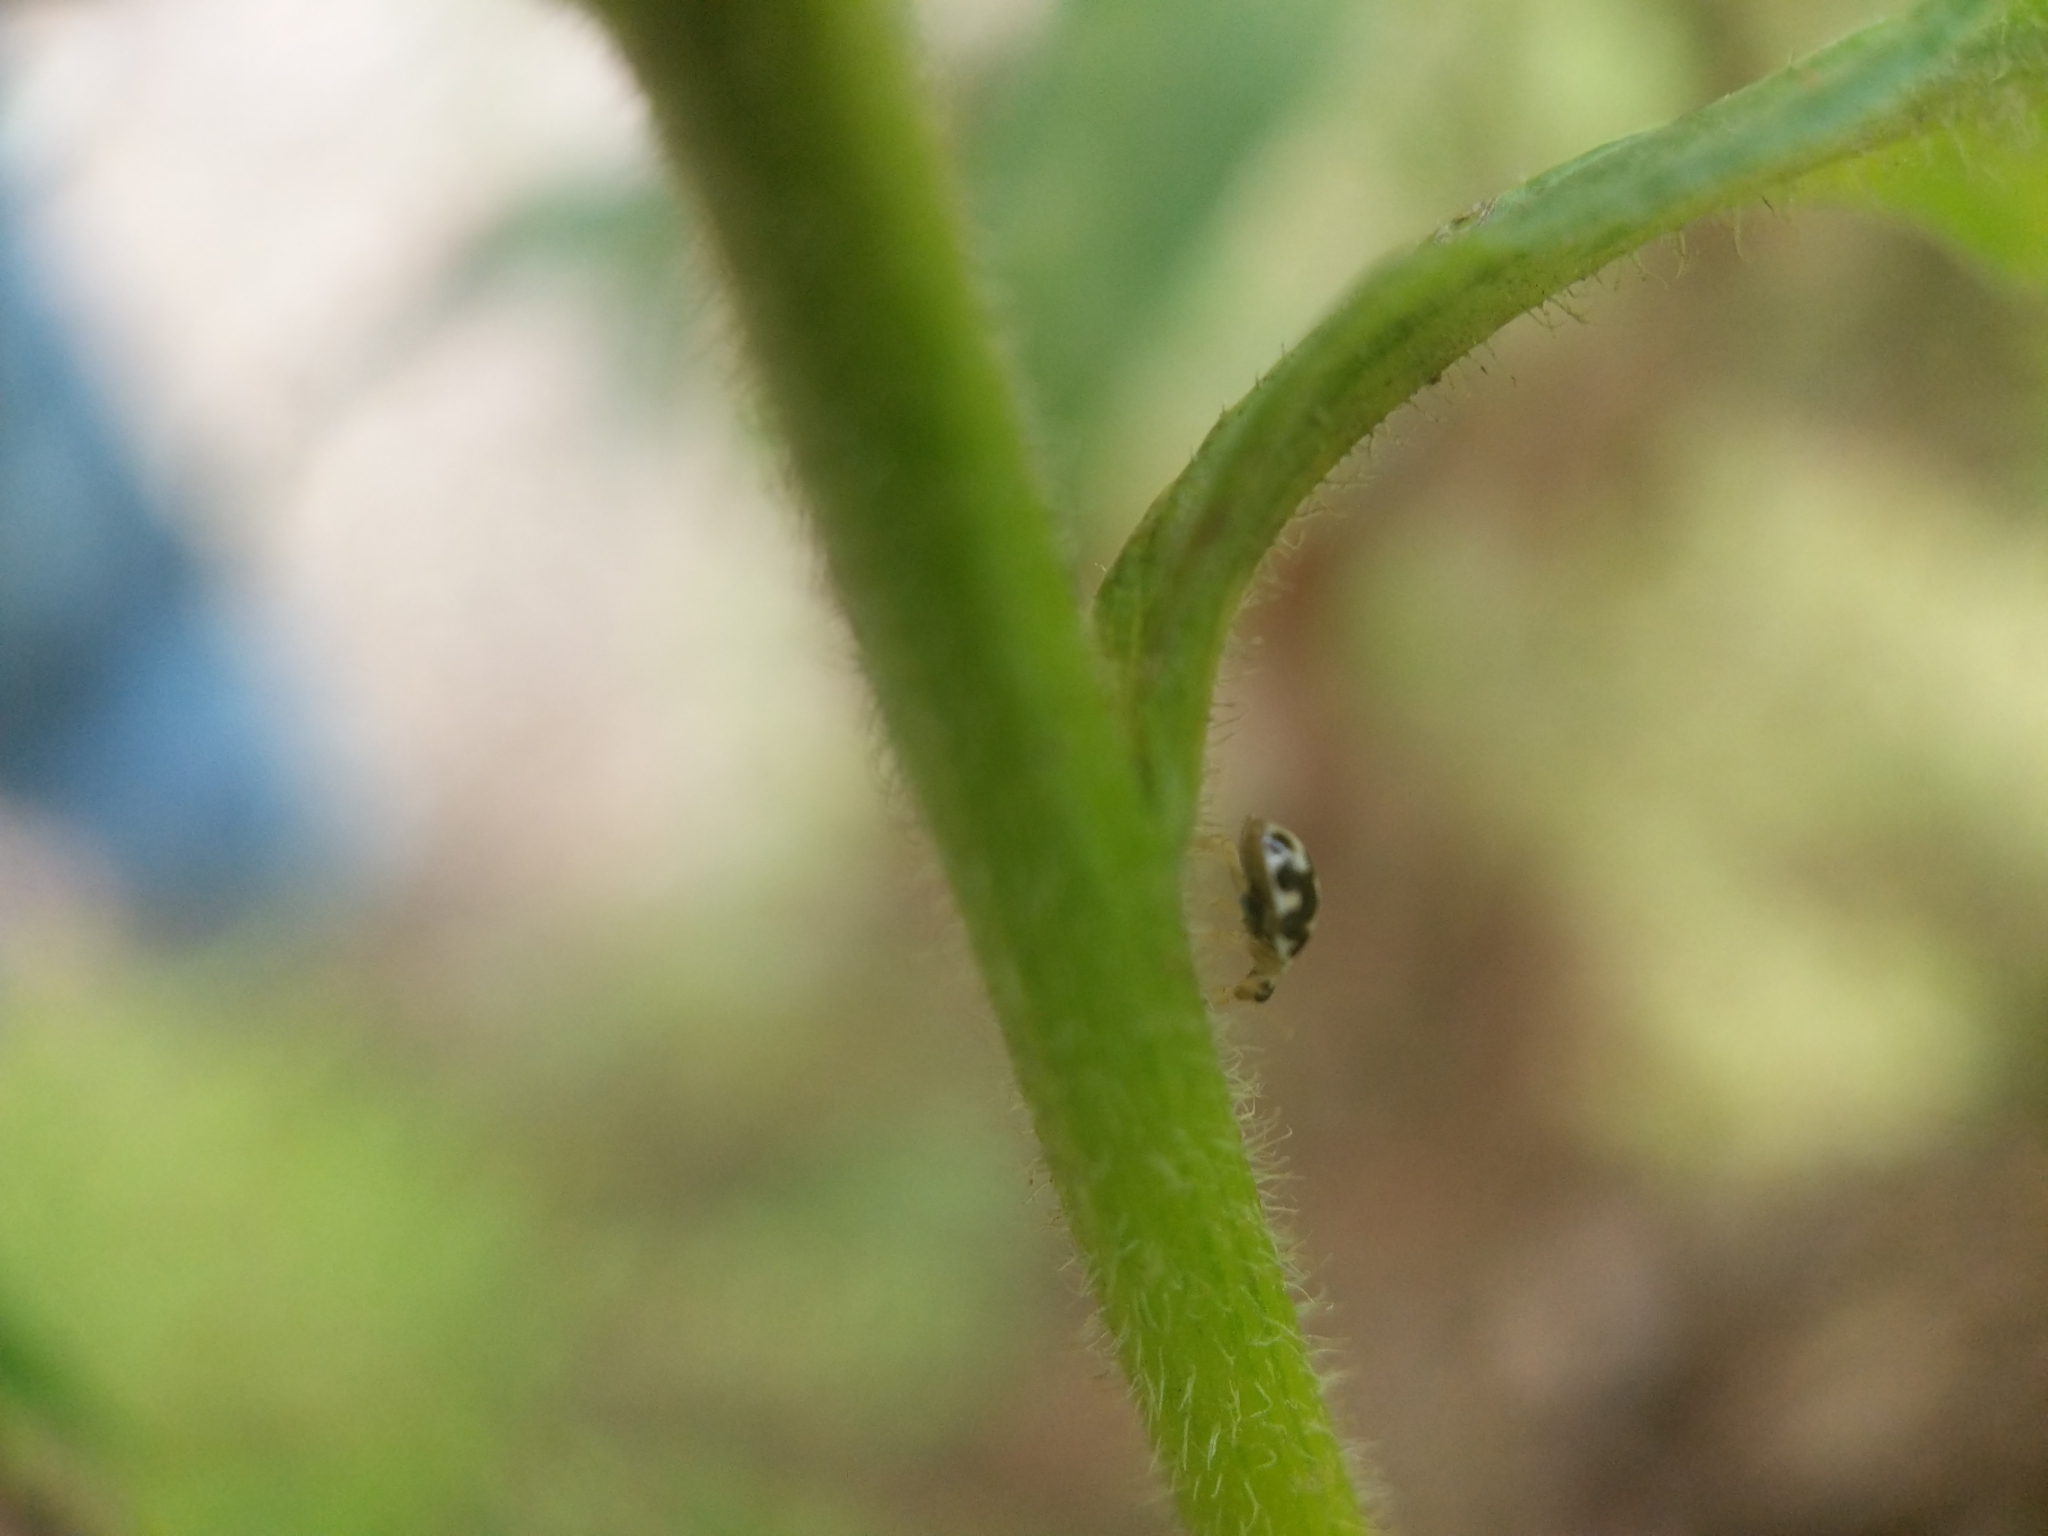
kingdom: Animalia
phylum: Arthropoda
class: Insecta
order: Coleoptera
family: Coccinellidae
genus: Psyllobora
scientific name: Psyllobora vigintimaculata
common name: Ladybird beetle
